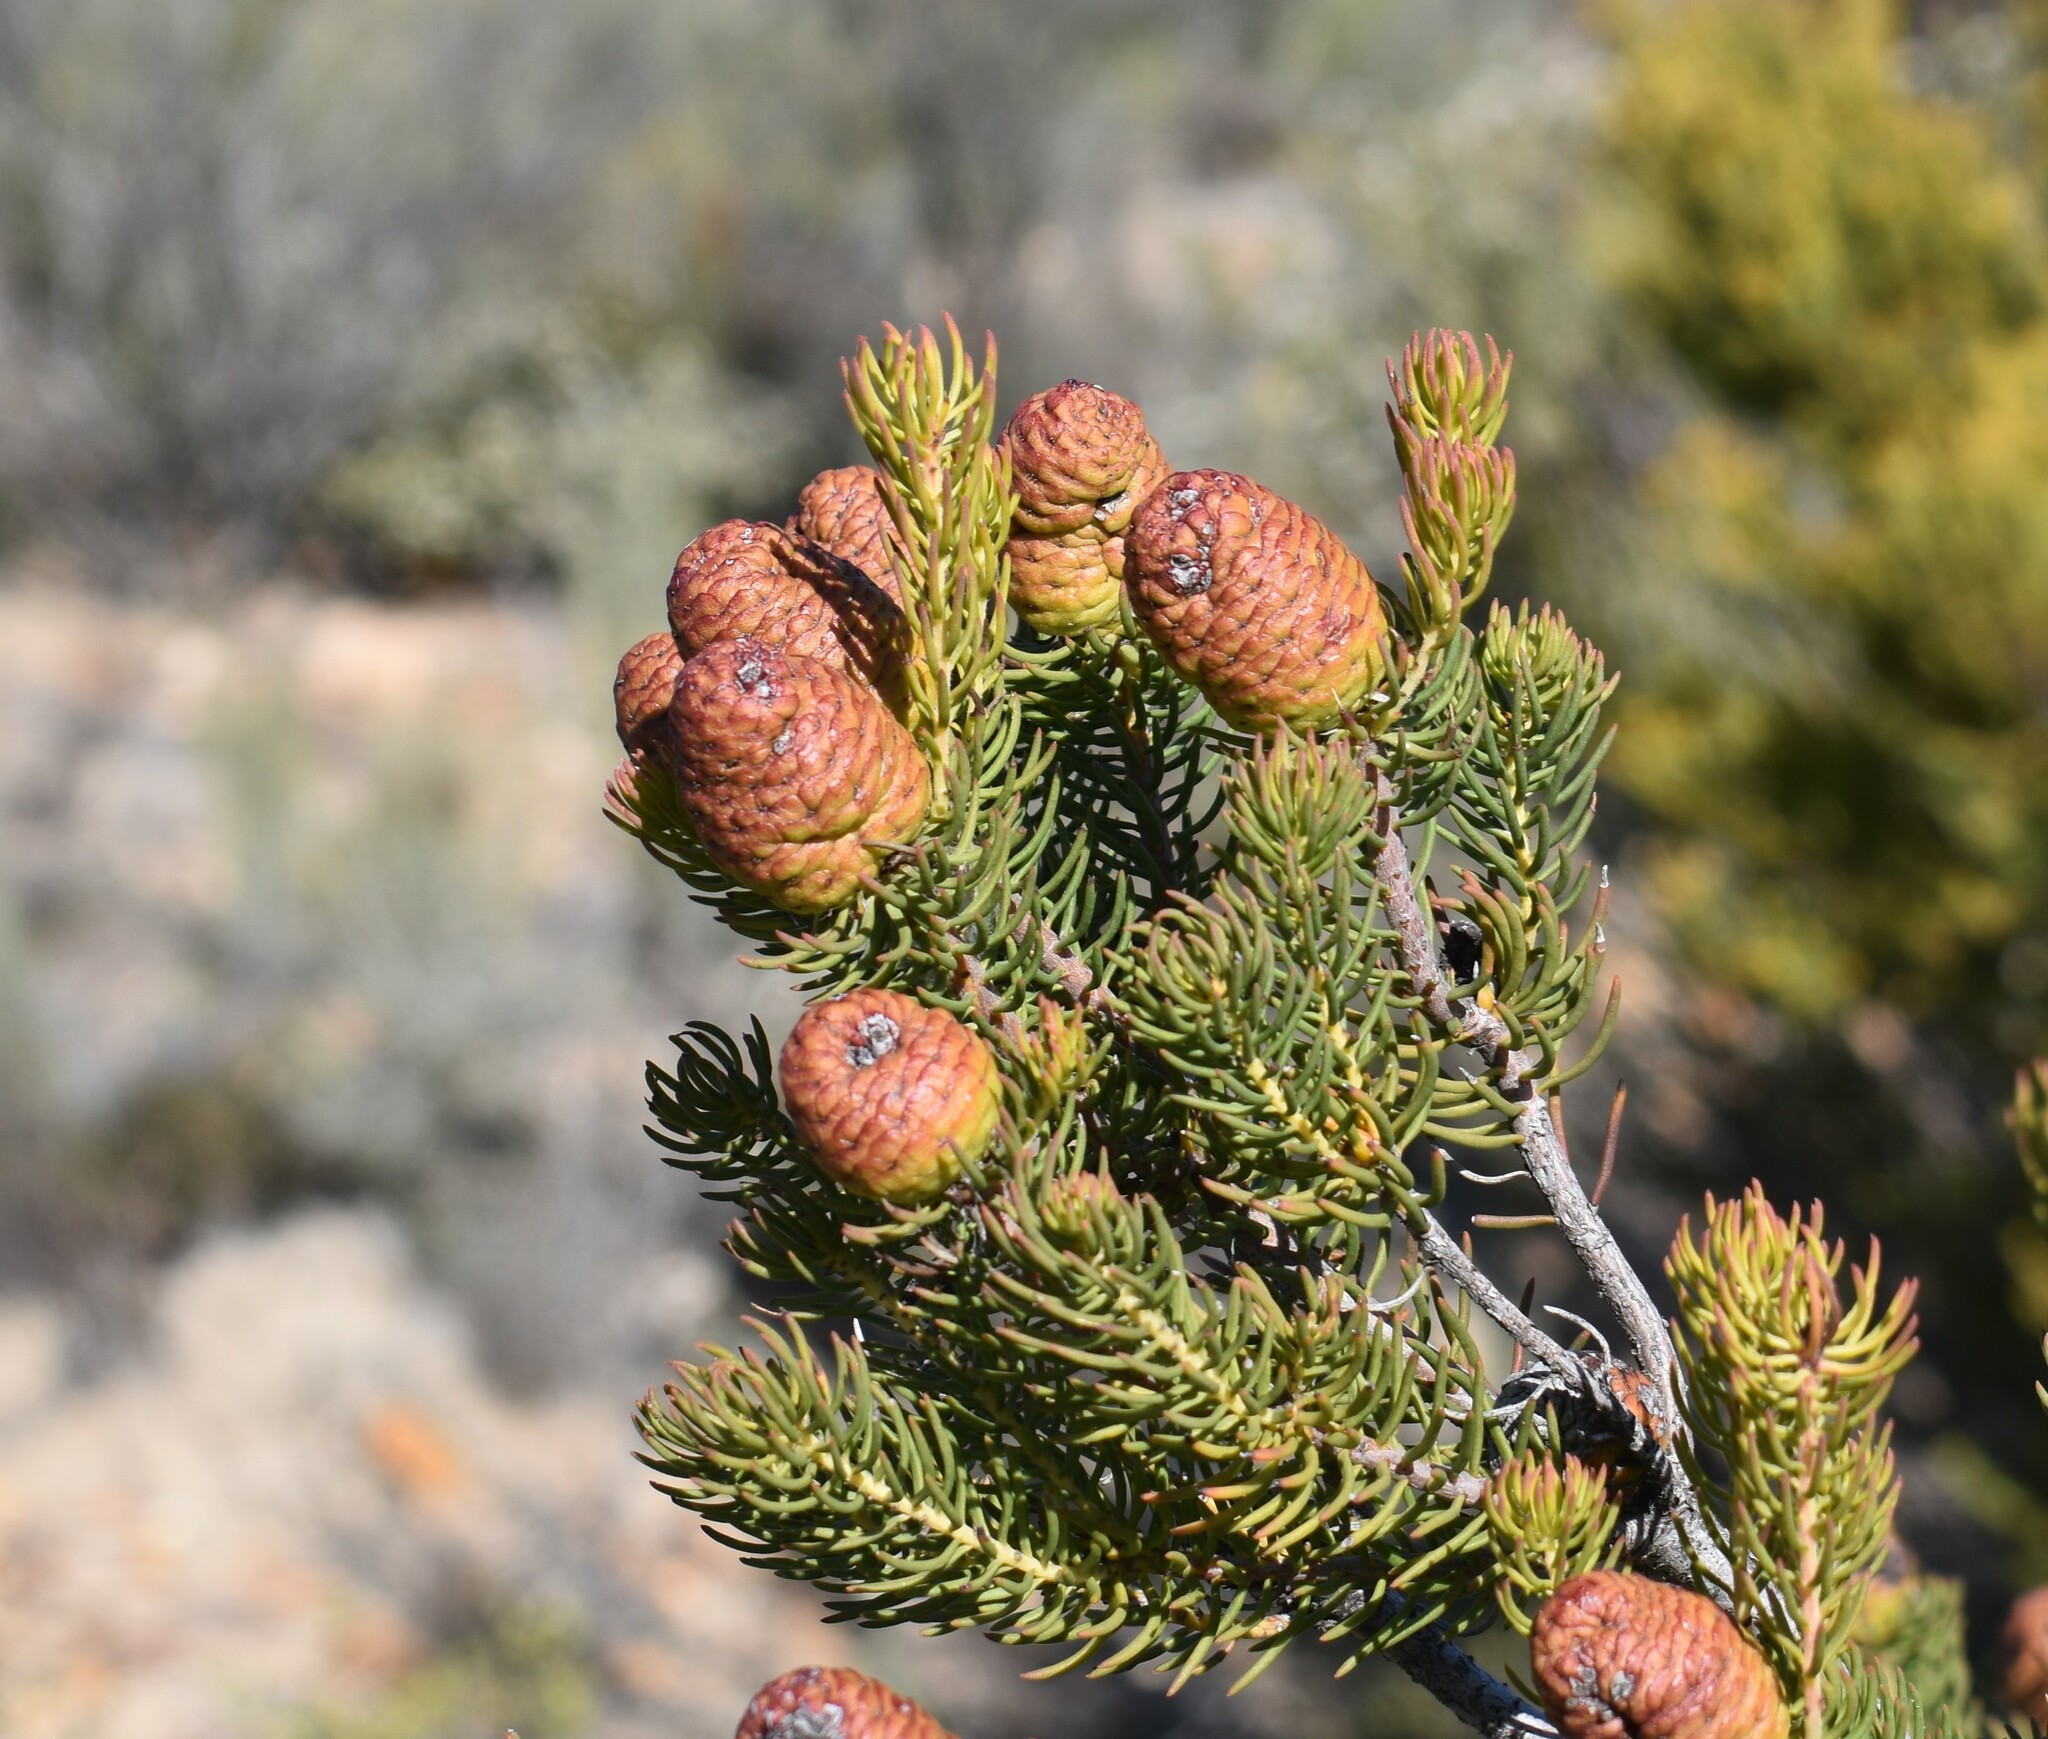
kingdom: Plantae
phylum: Tracheophyta
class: Magnoliopsida
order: Proteales
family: Proteaceae
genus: Leucadendron
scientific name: Leucadendron teretifolium
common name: Needle-leaf conebush
